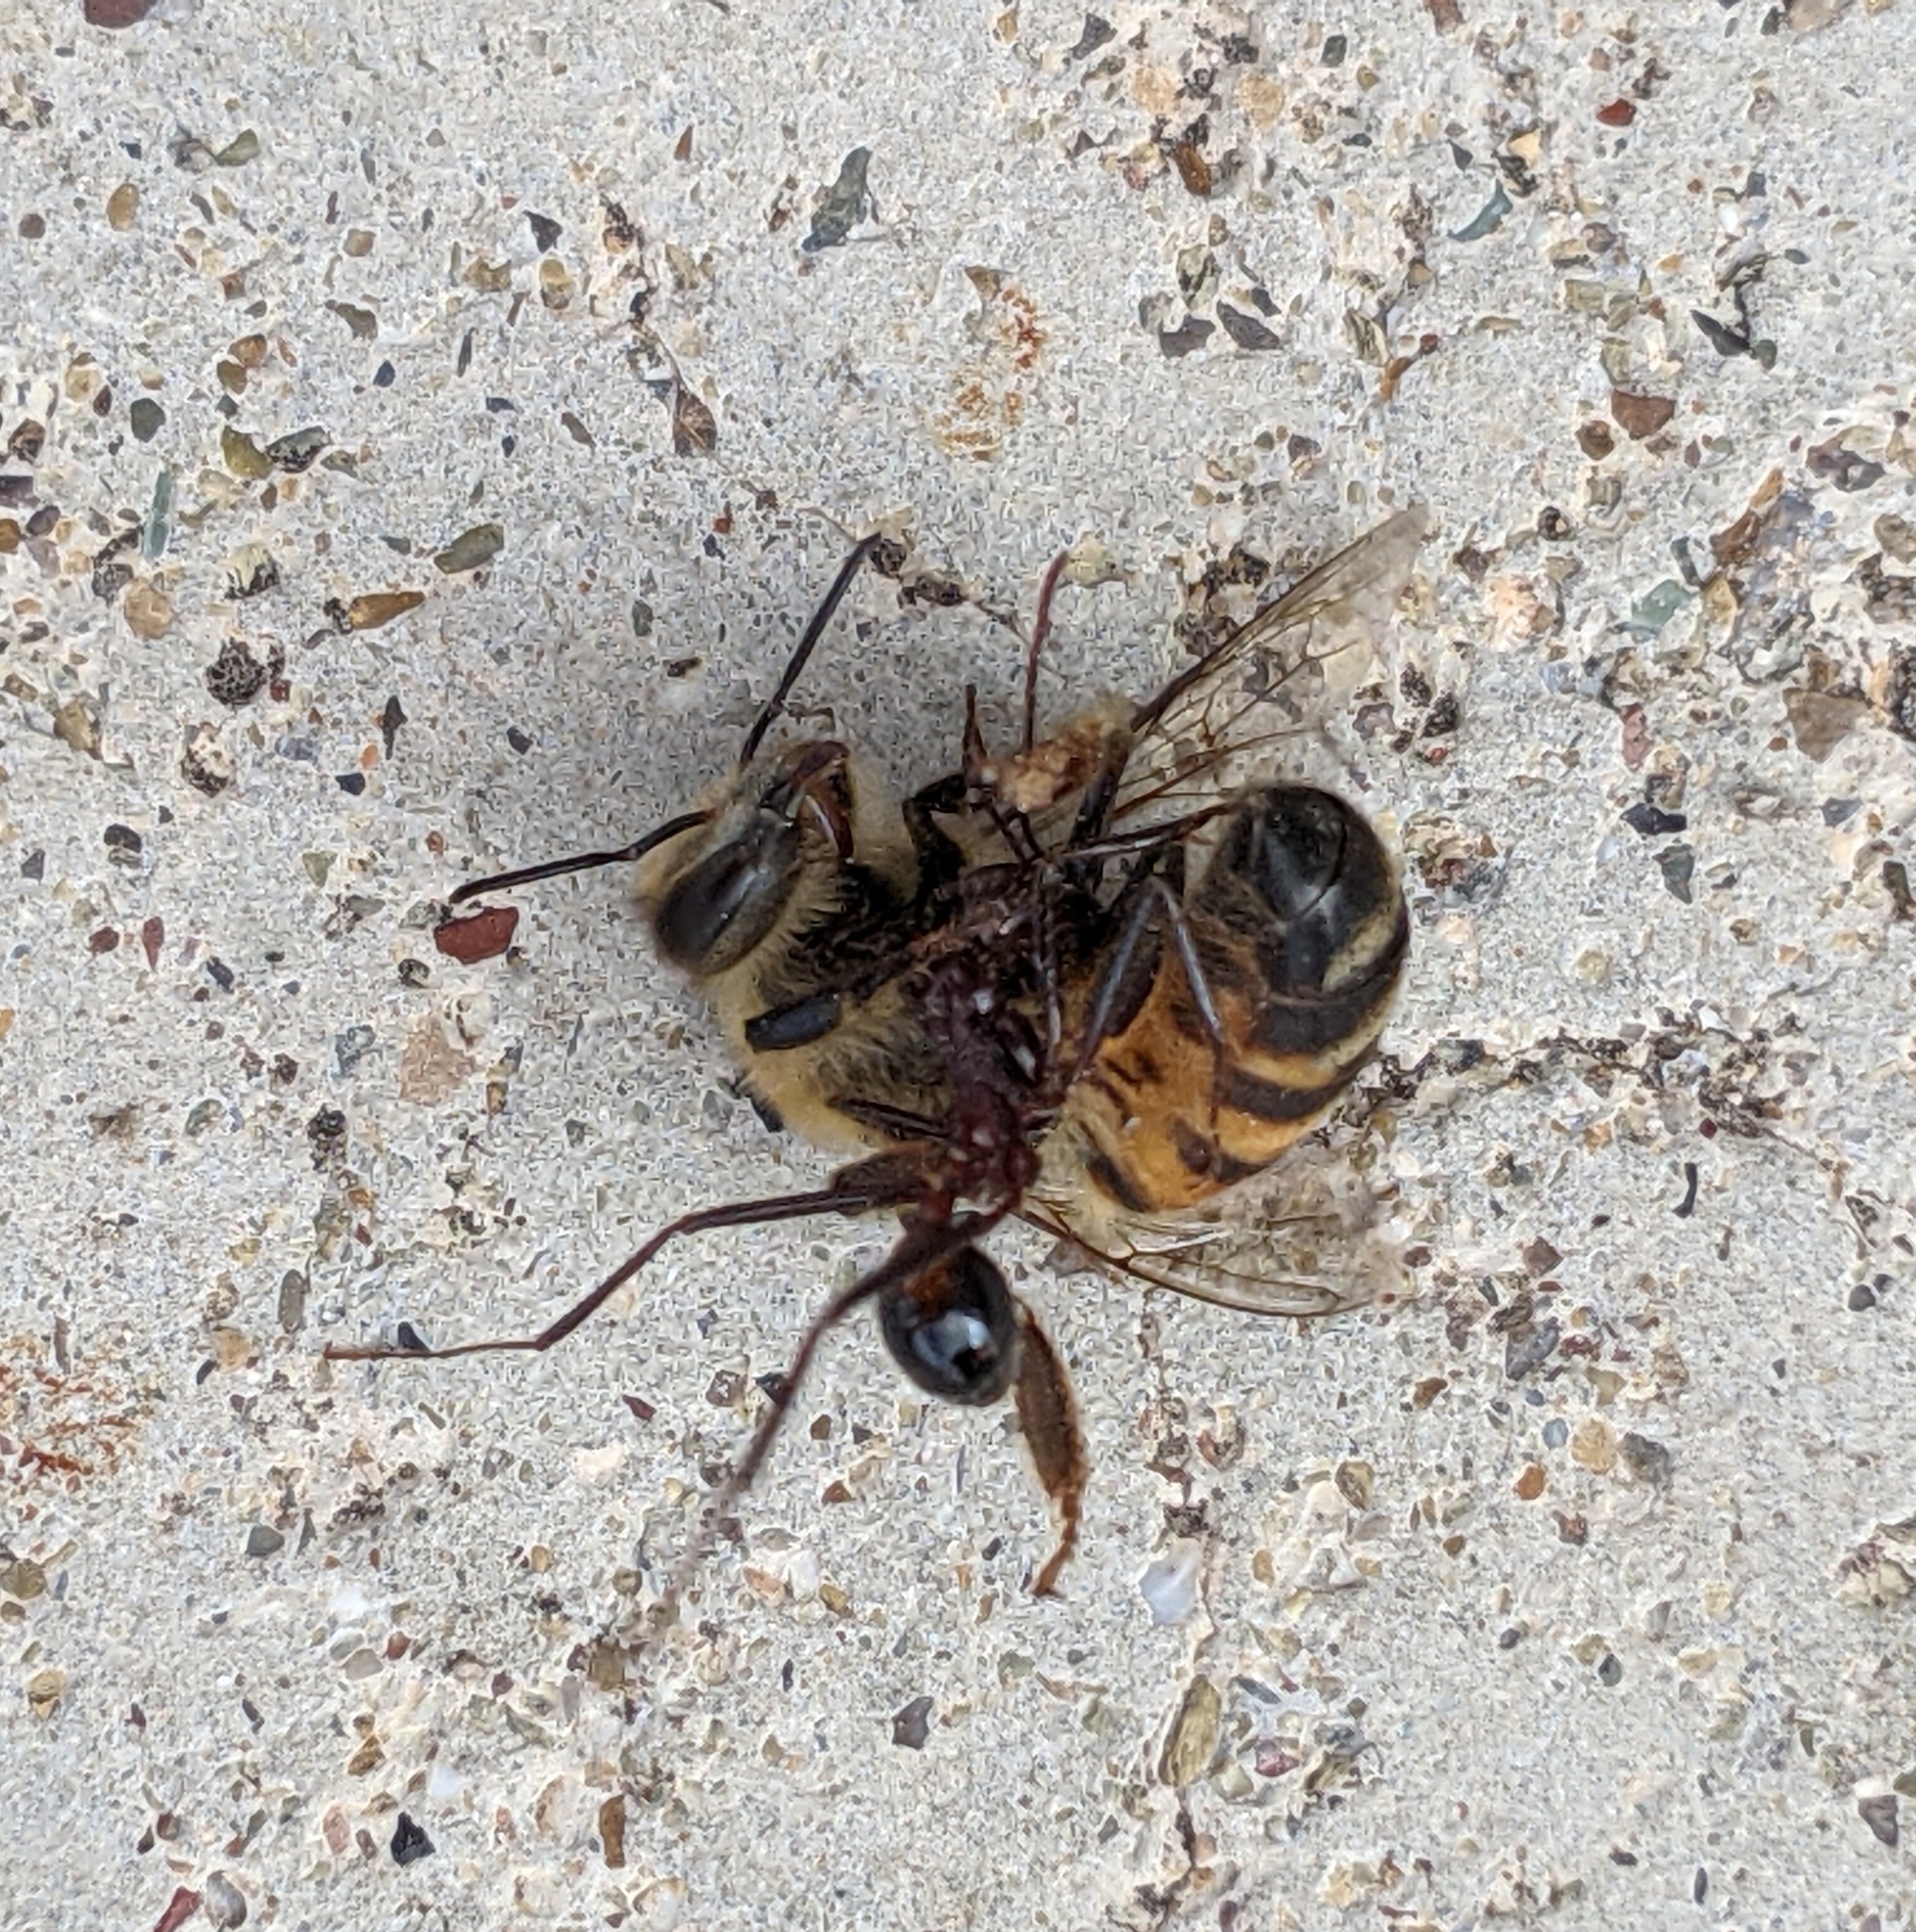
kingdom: Animalia
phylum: Arthropoda
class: Insecta
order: Hymenoptera
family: Formicidae
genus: Novomessor
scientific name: Novomessor cockerelli
